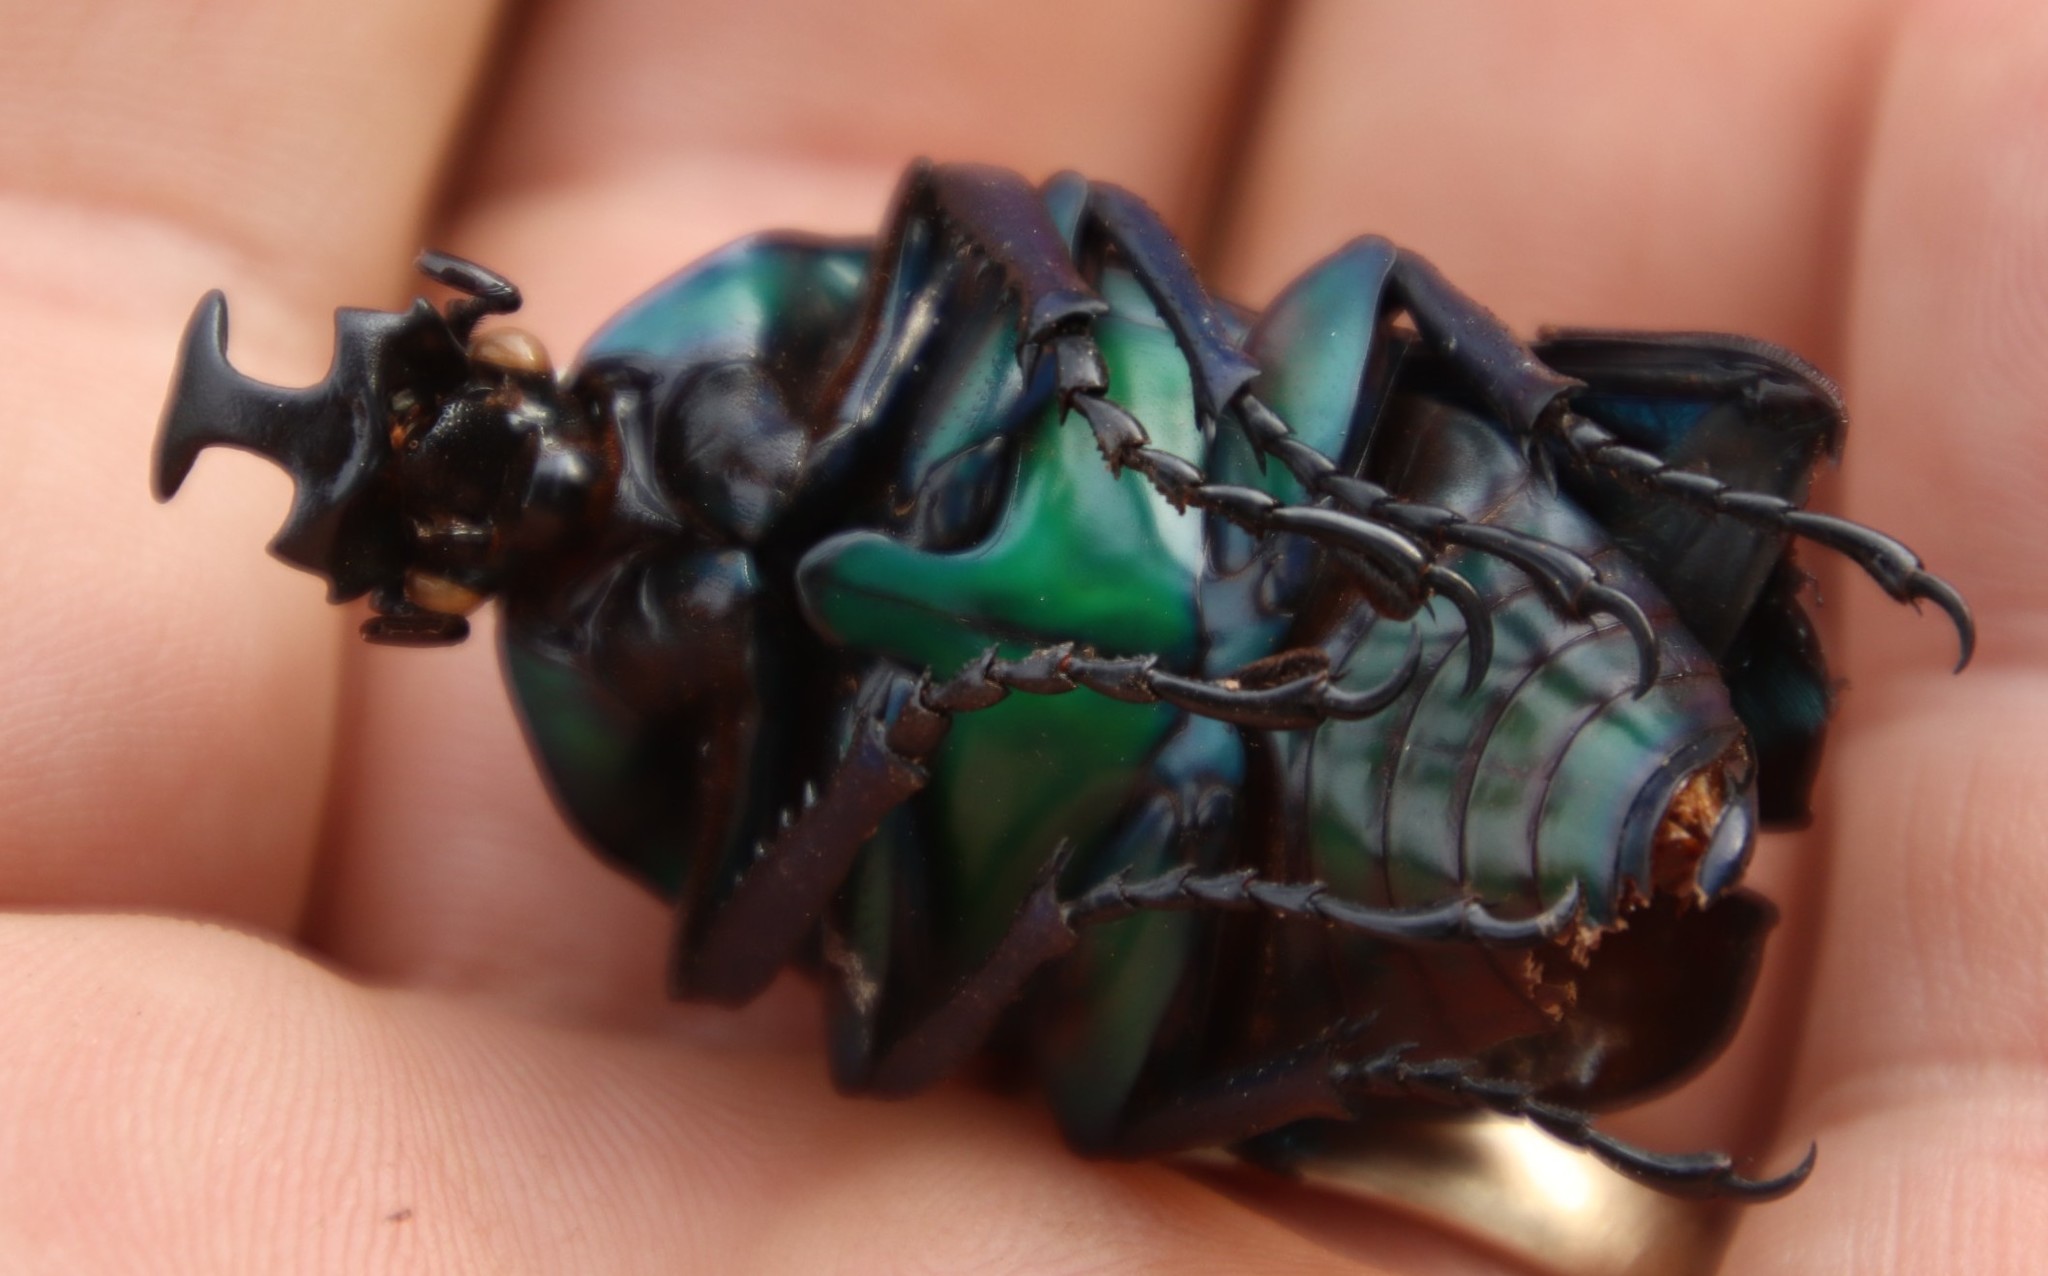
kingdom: Animalia
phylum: Arthropoda
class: Insecta
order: Coleoptera
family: Scarabaeidae
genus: Dicronorhina
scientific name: Dicronorhina derbyana
